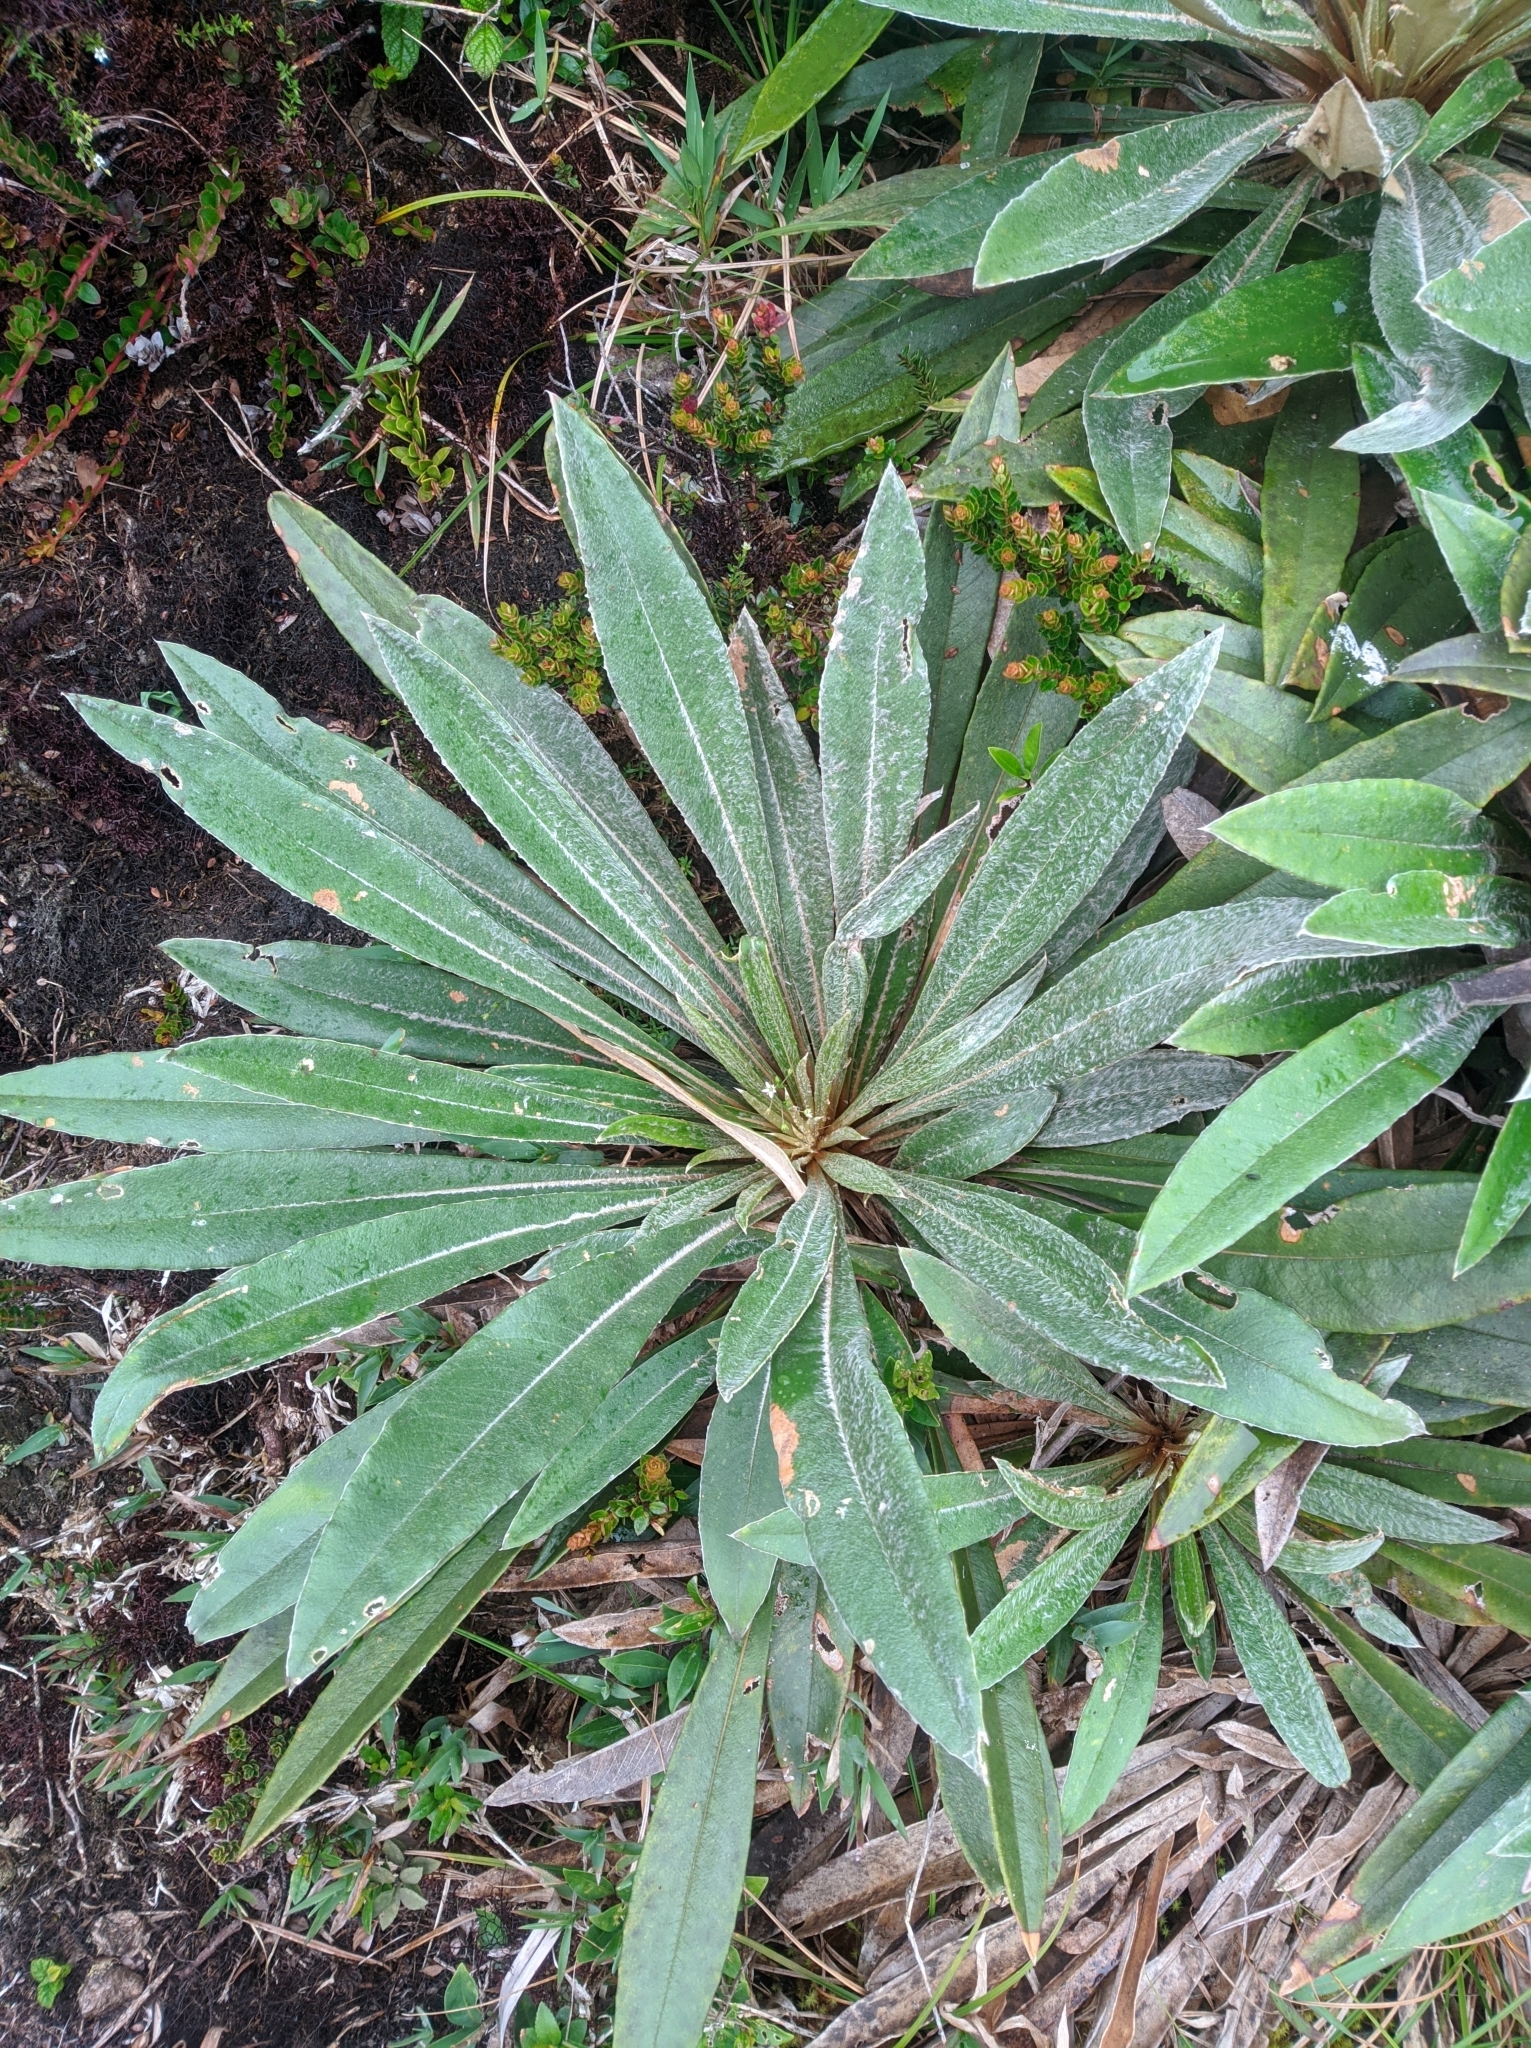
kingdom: Plantae
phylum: Tracheophyta
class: Magnoliopsida
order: Asterales
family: Asteraceae
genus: Espeletia
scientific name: Espeletia bracteosa
